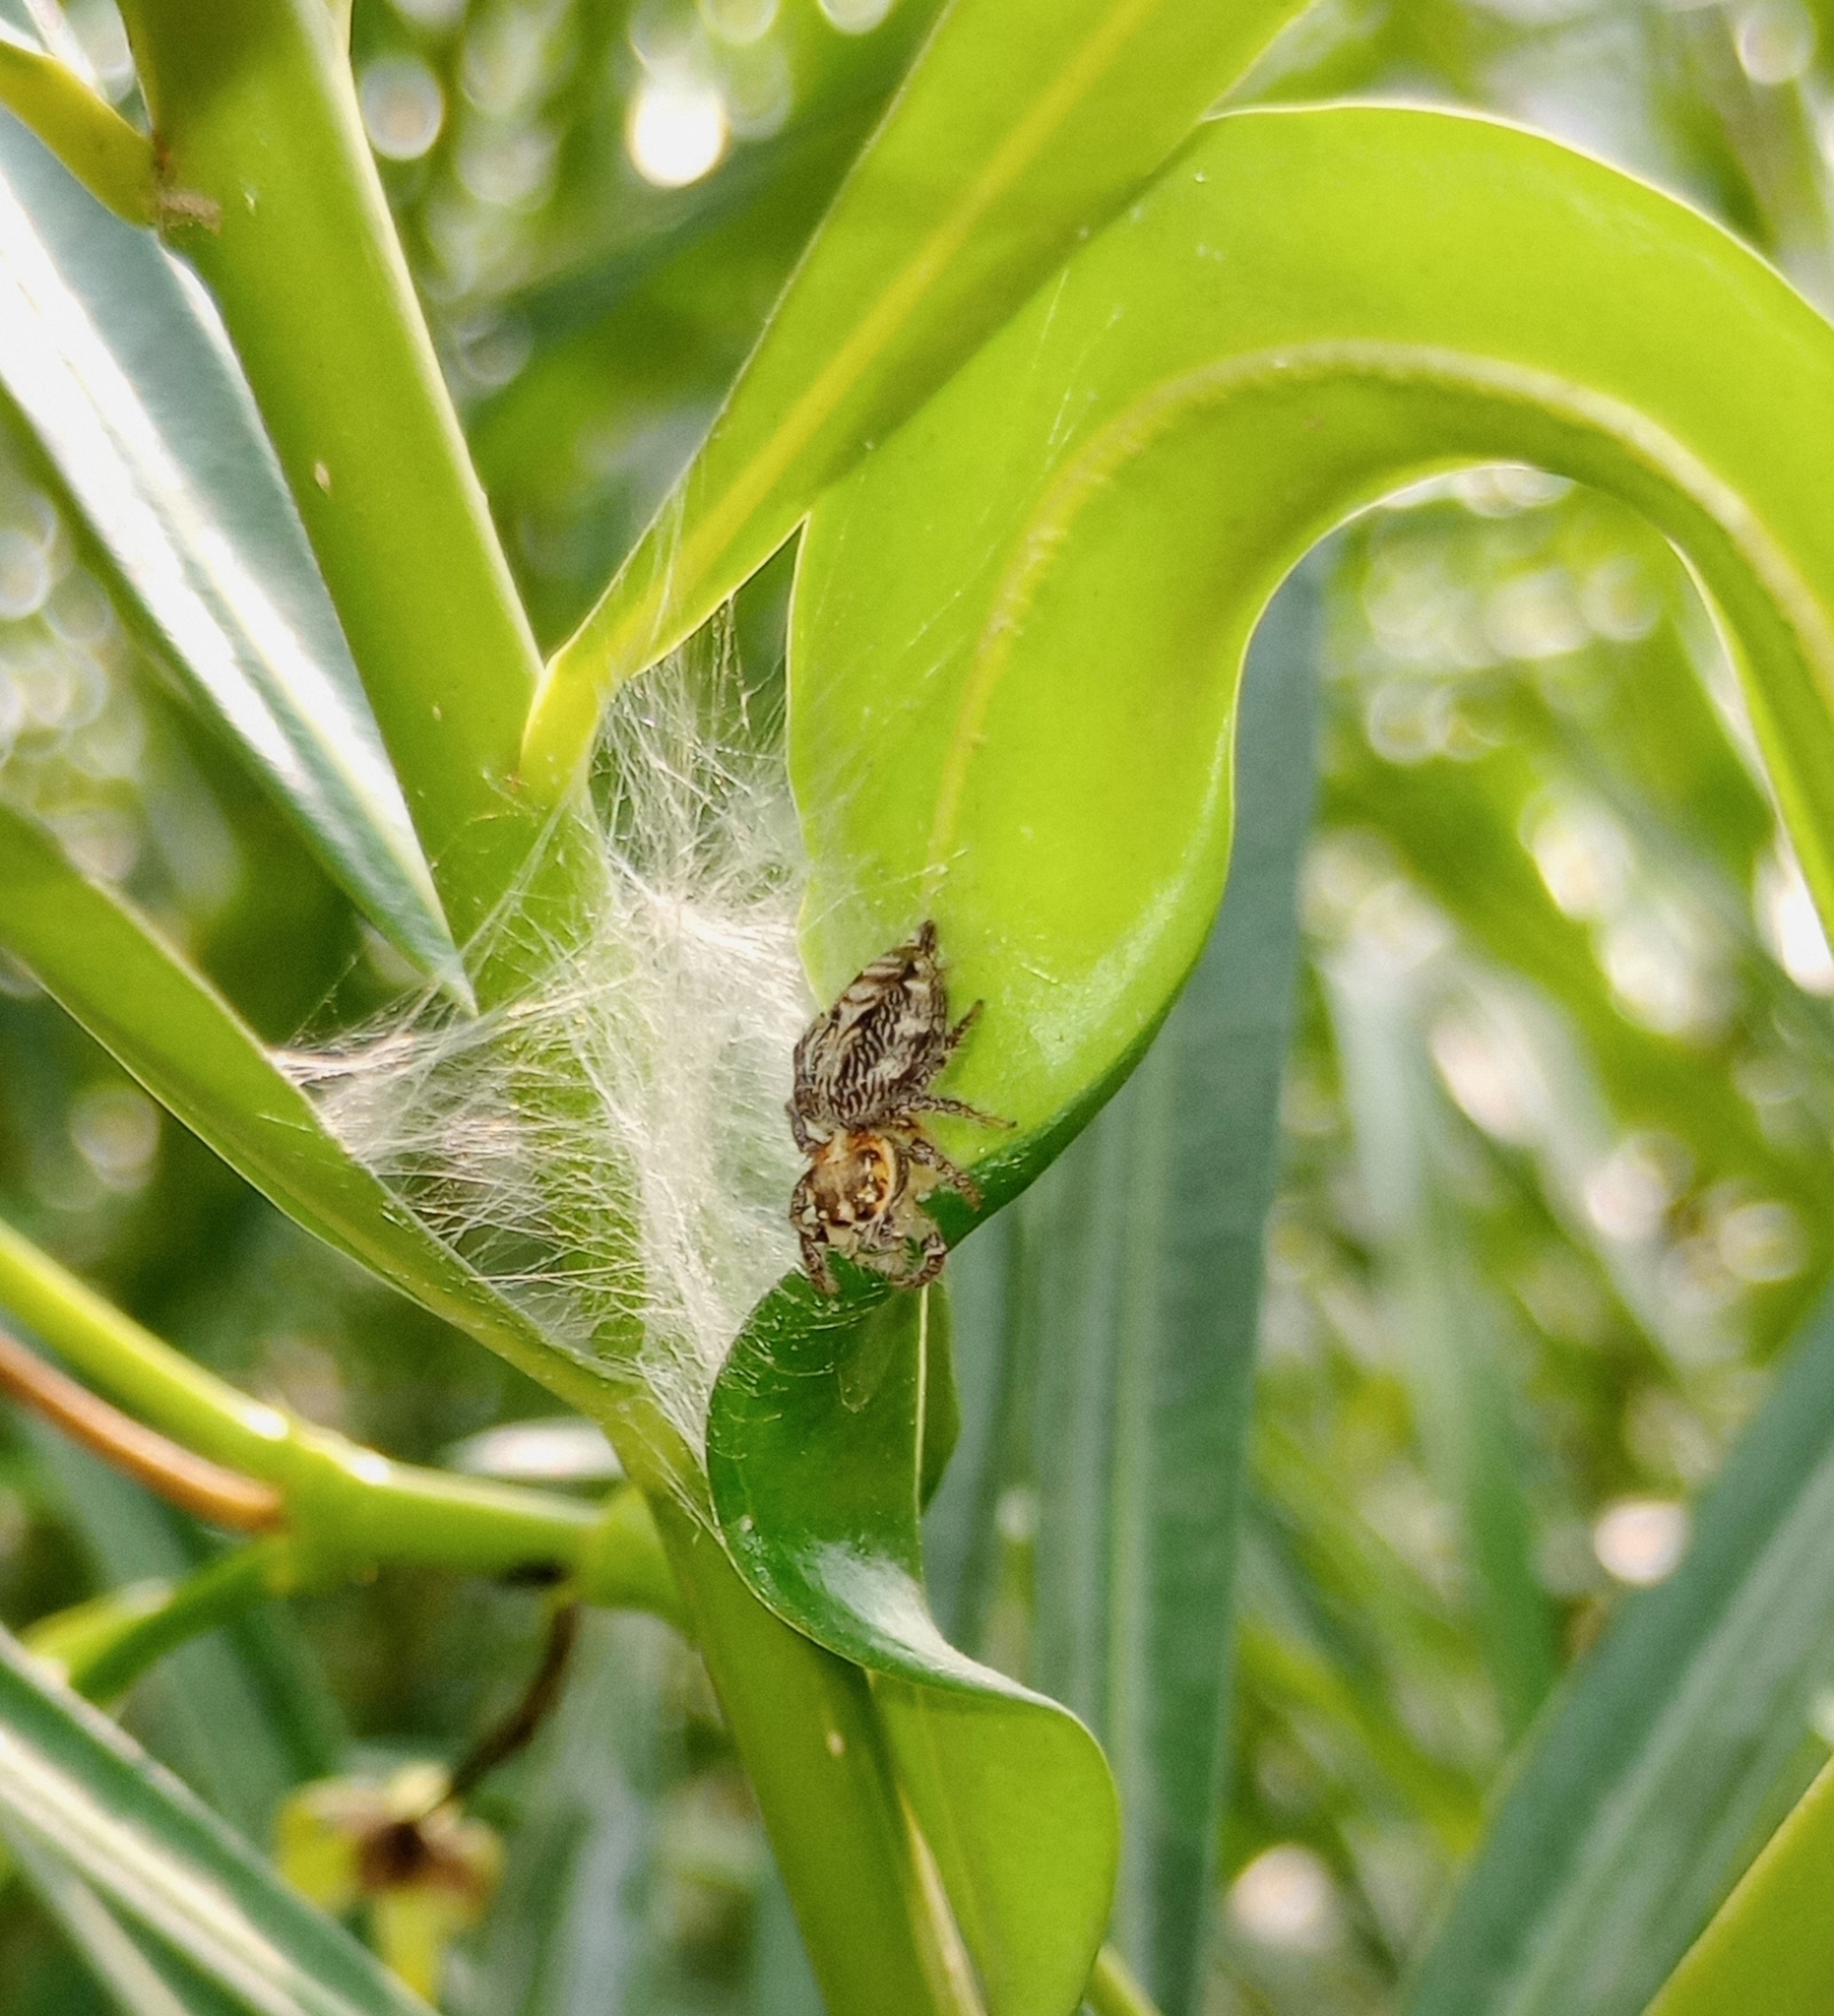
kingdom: Animalia
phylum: Arthropoda
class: Arachnida
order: Araneae
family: Salticidae
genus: Hyllus
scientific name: Hyllus semicupreus
